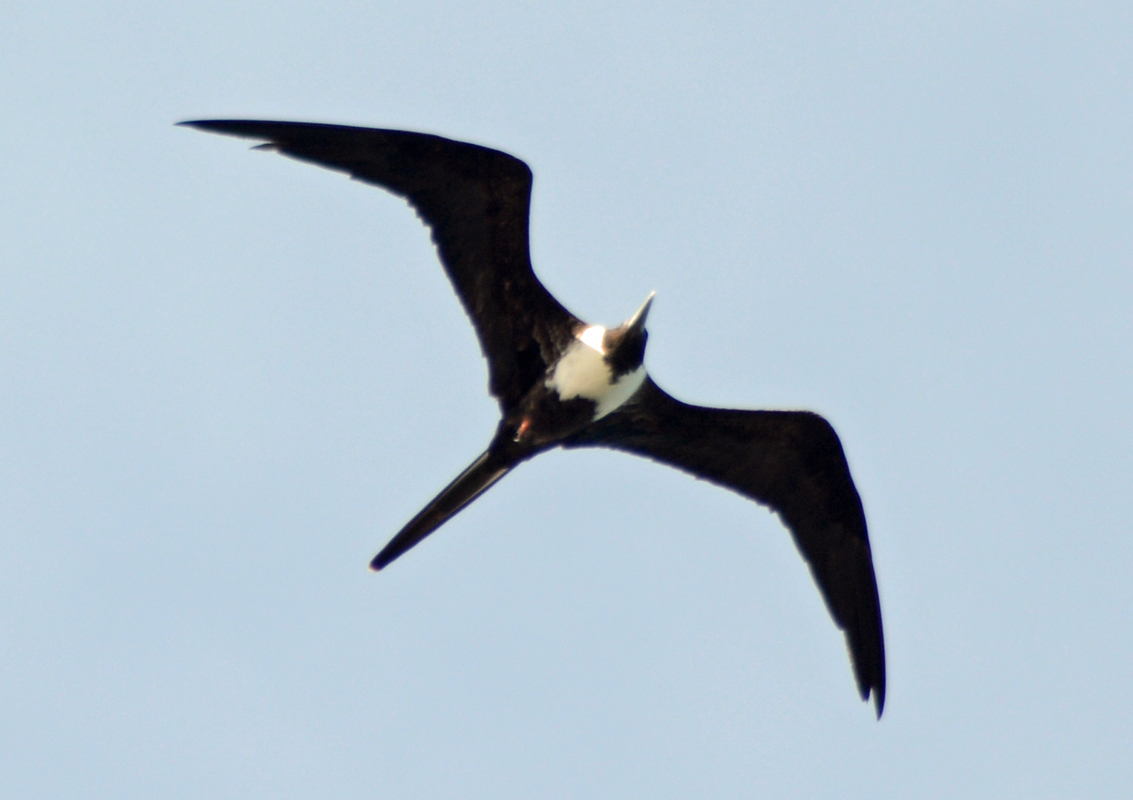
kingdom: Animalia
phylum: Chordata
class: Aves
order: Suliformes
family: Fregatidae
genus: Fregata
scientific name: Fregata magnificens
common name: Magnificent frigatebird
